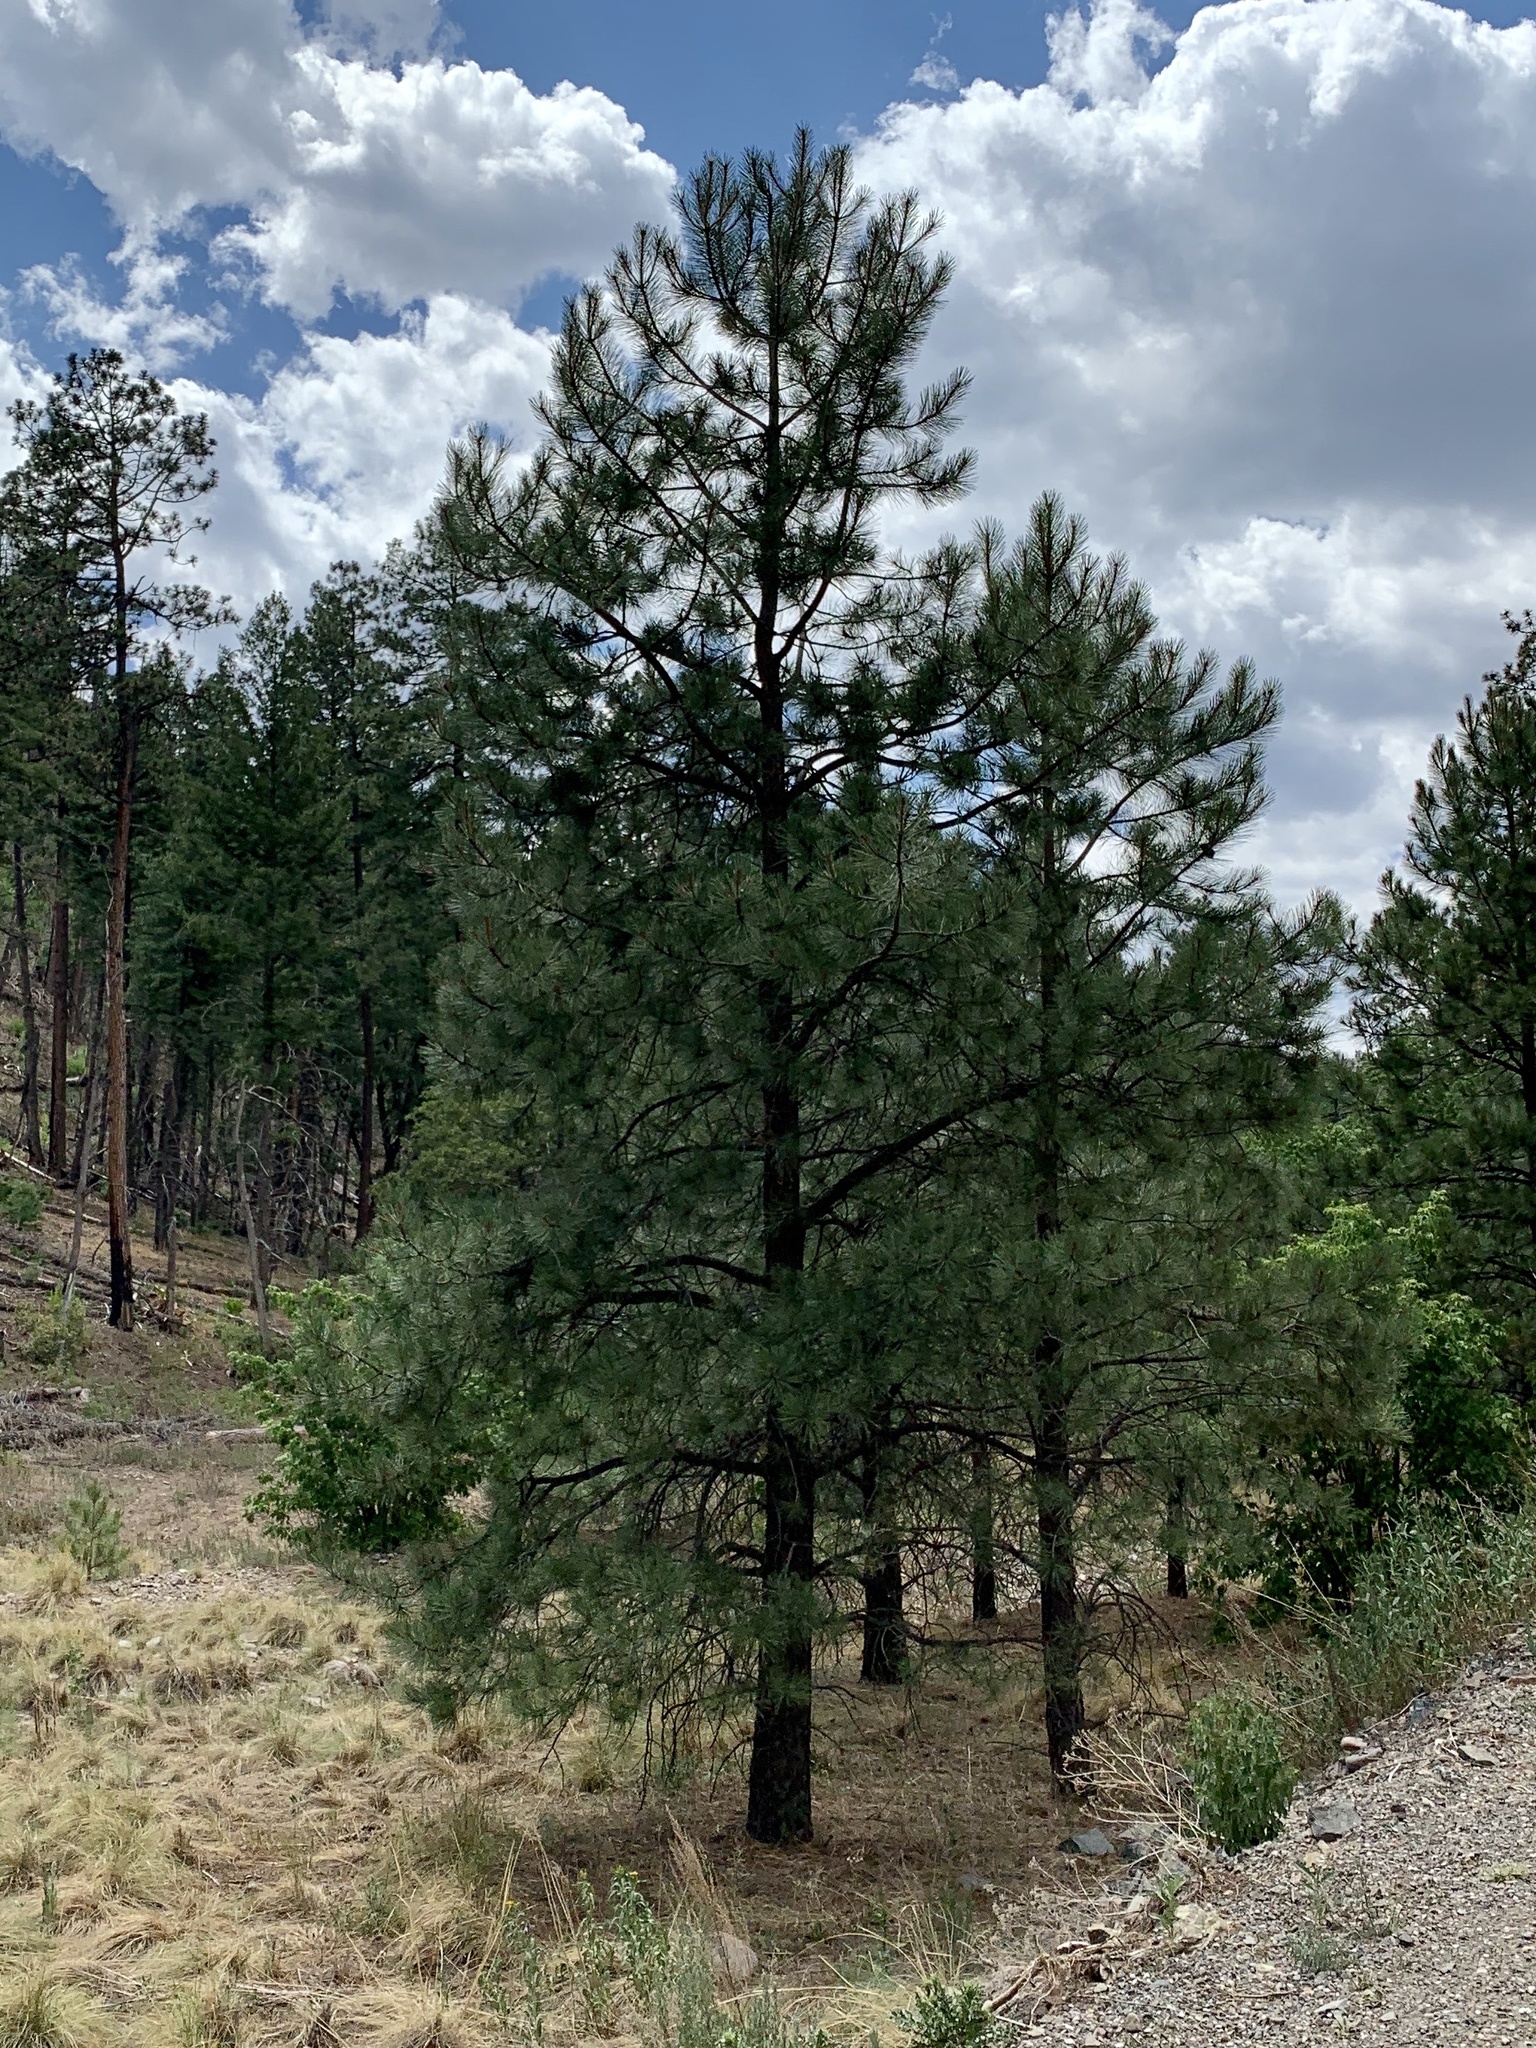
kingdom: Plantae
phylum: Tracheophyta
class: Pinopsida
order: Pinales
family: Pinaceae
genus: Pinus
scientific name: Pinus ponderosa
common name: Western yellow-pine
